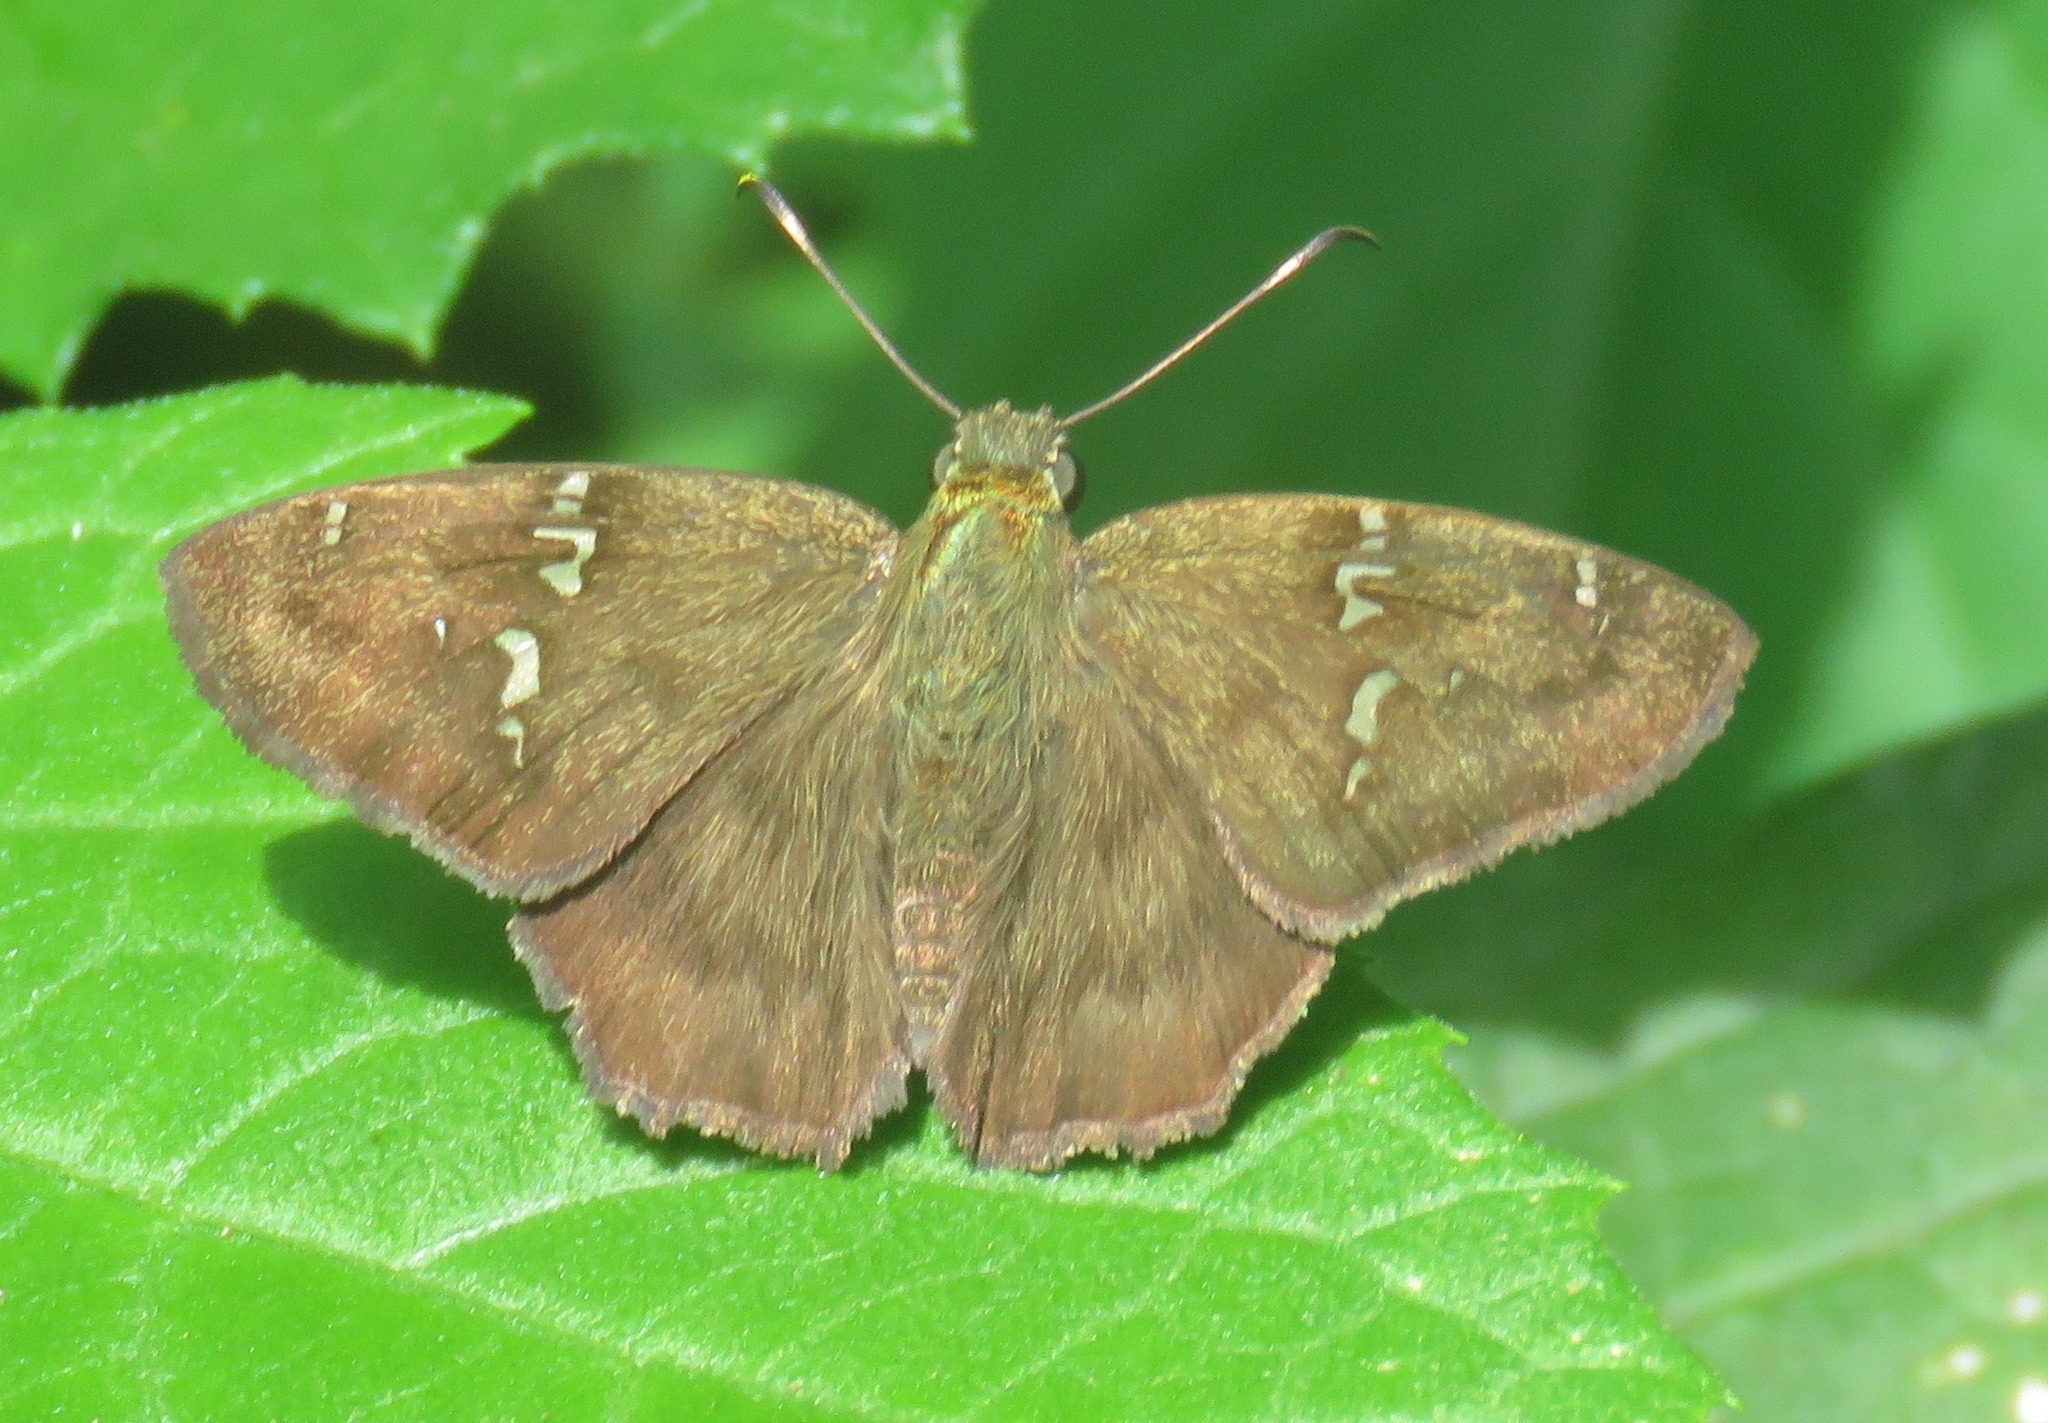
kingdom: Animalia
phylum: Arthropoda
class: Insecta
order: Lepidoptera
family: Hesperiidae
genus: Autochton
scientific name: Autochton potrillo
